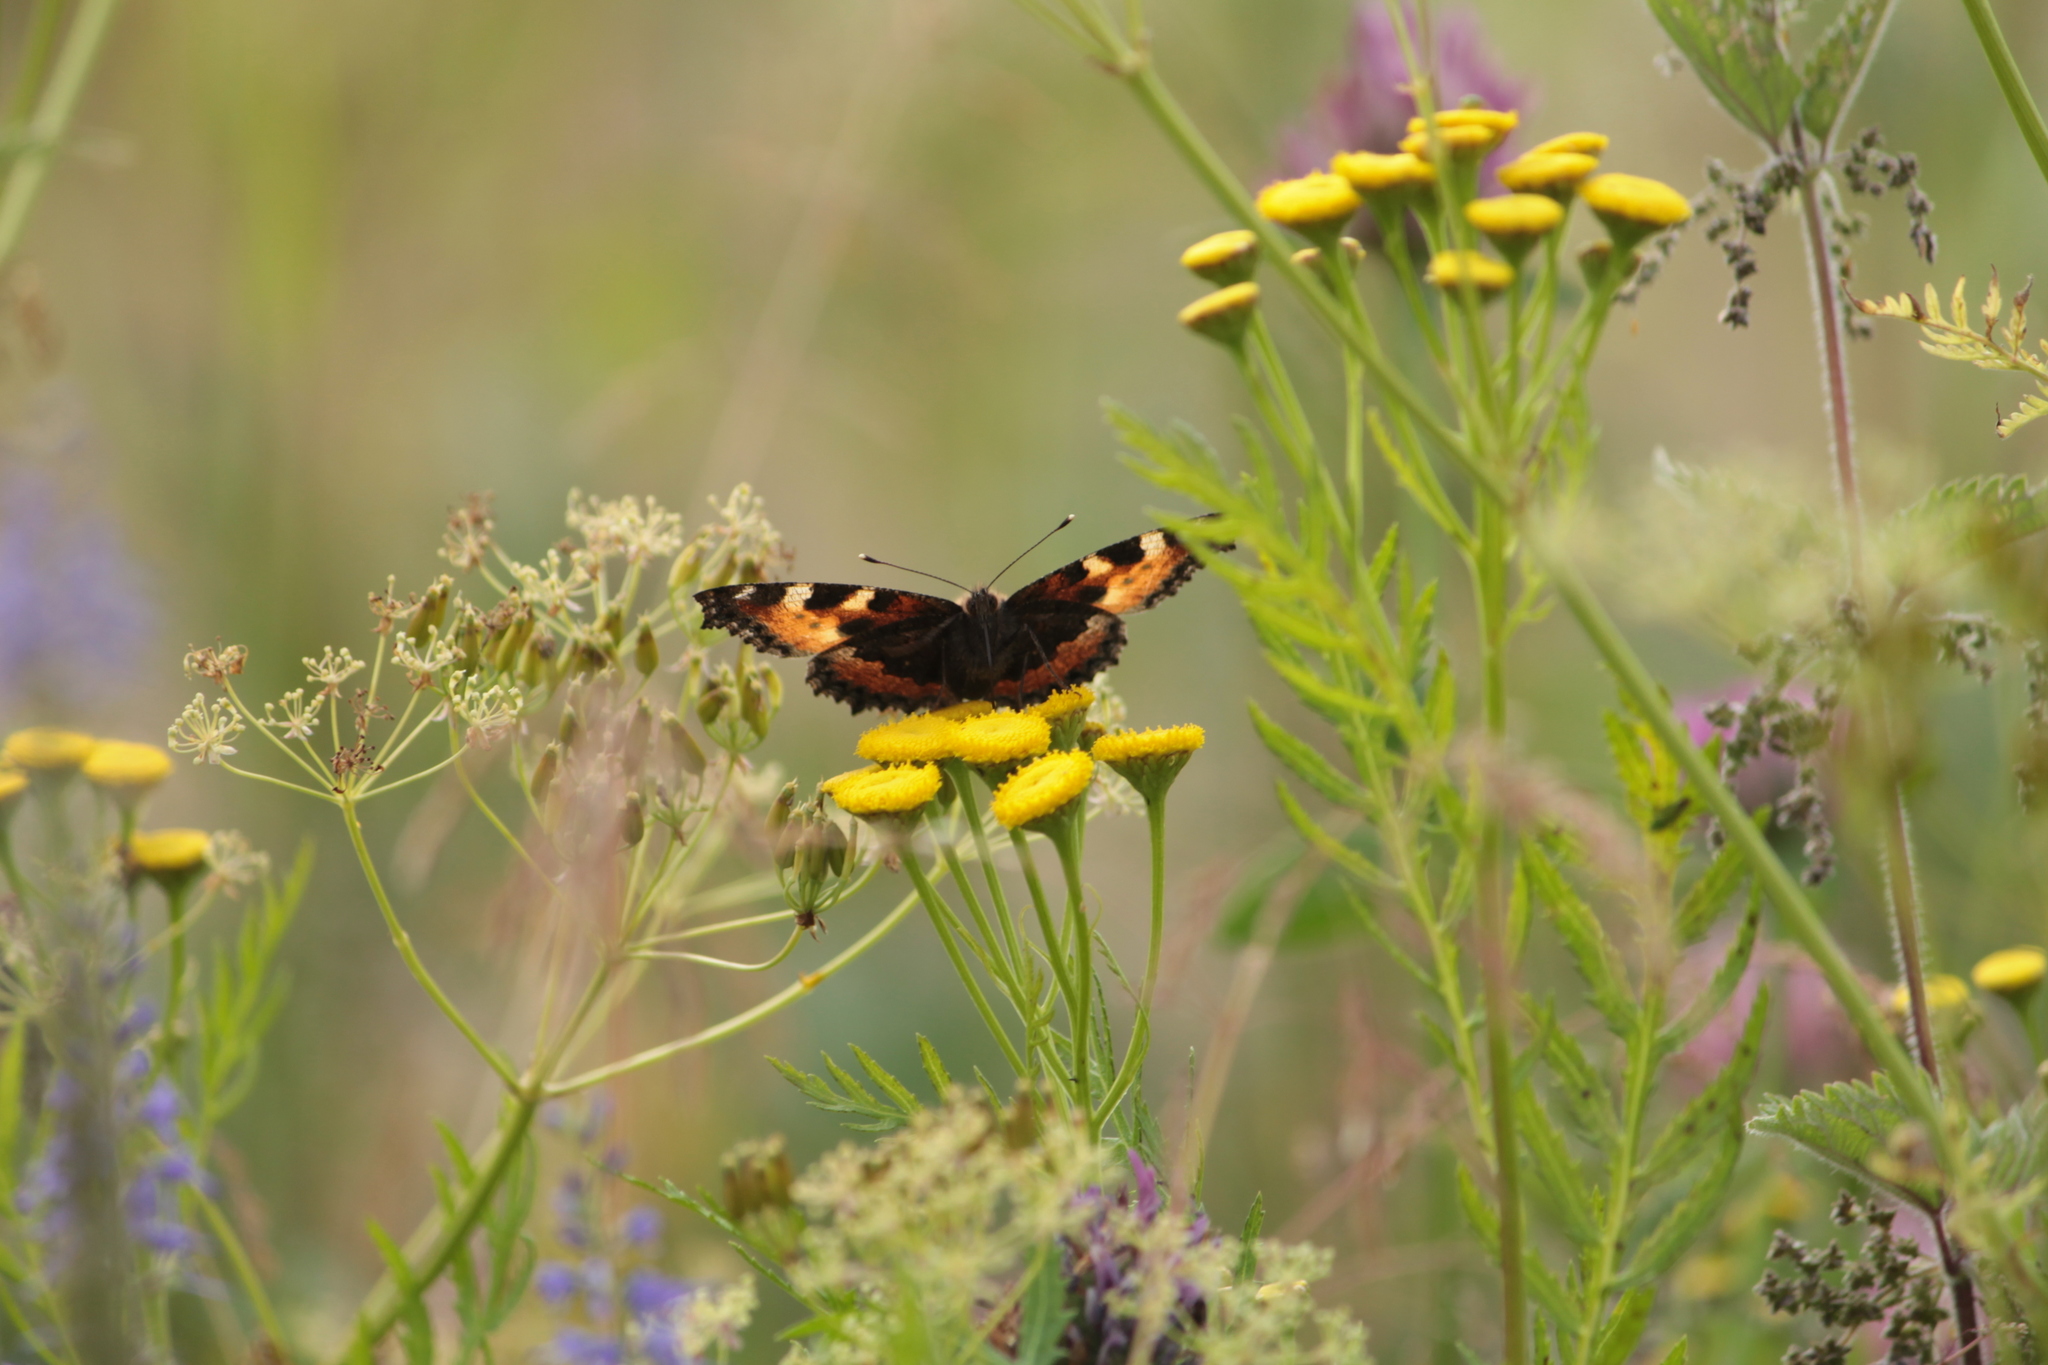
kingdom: Animalia
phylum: Arthropoda
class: Insecta
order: Lepidoptera
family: Nymphalidae
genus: Aglais
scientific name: Aglais urticae
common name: Small tortoiseshell
